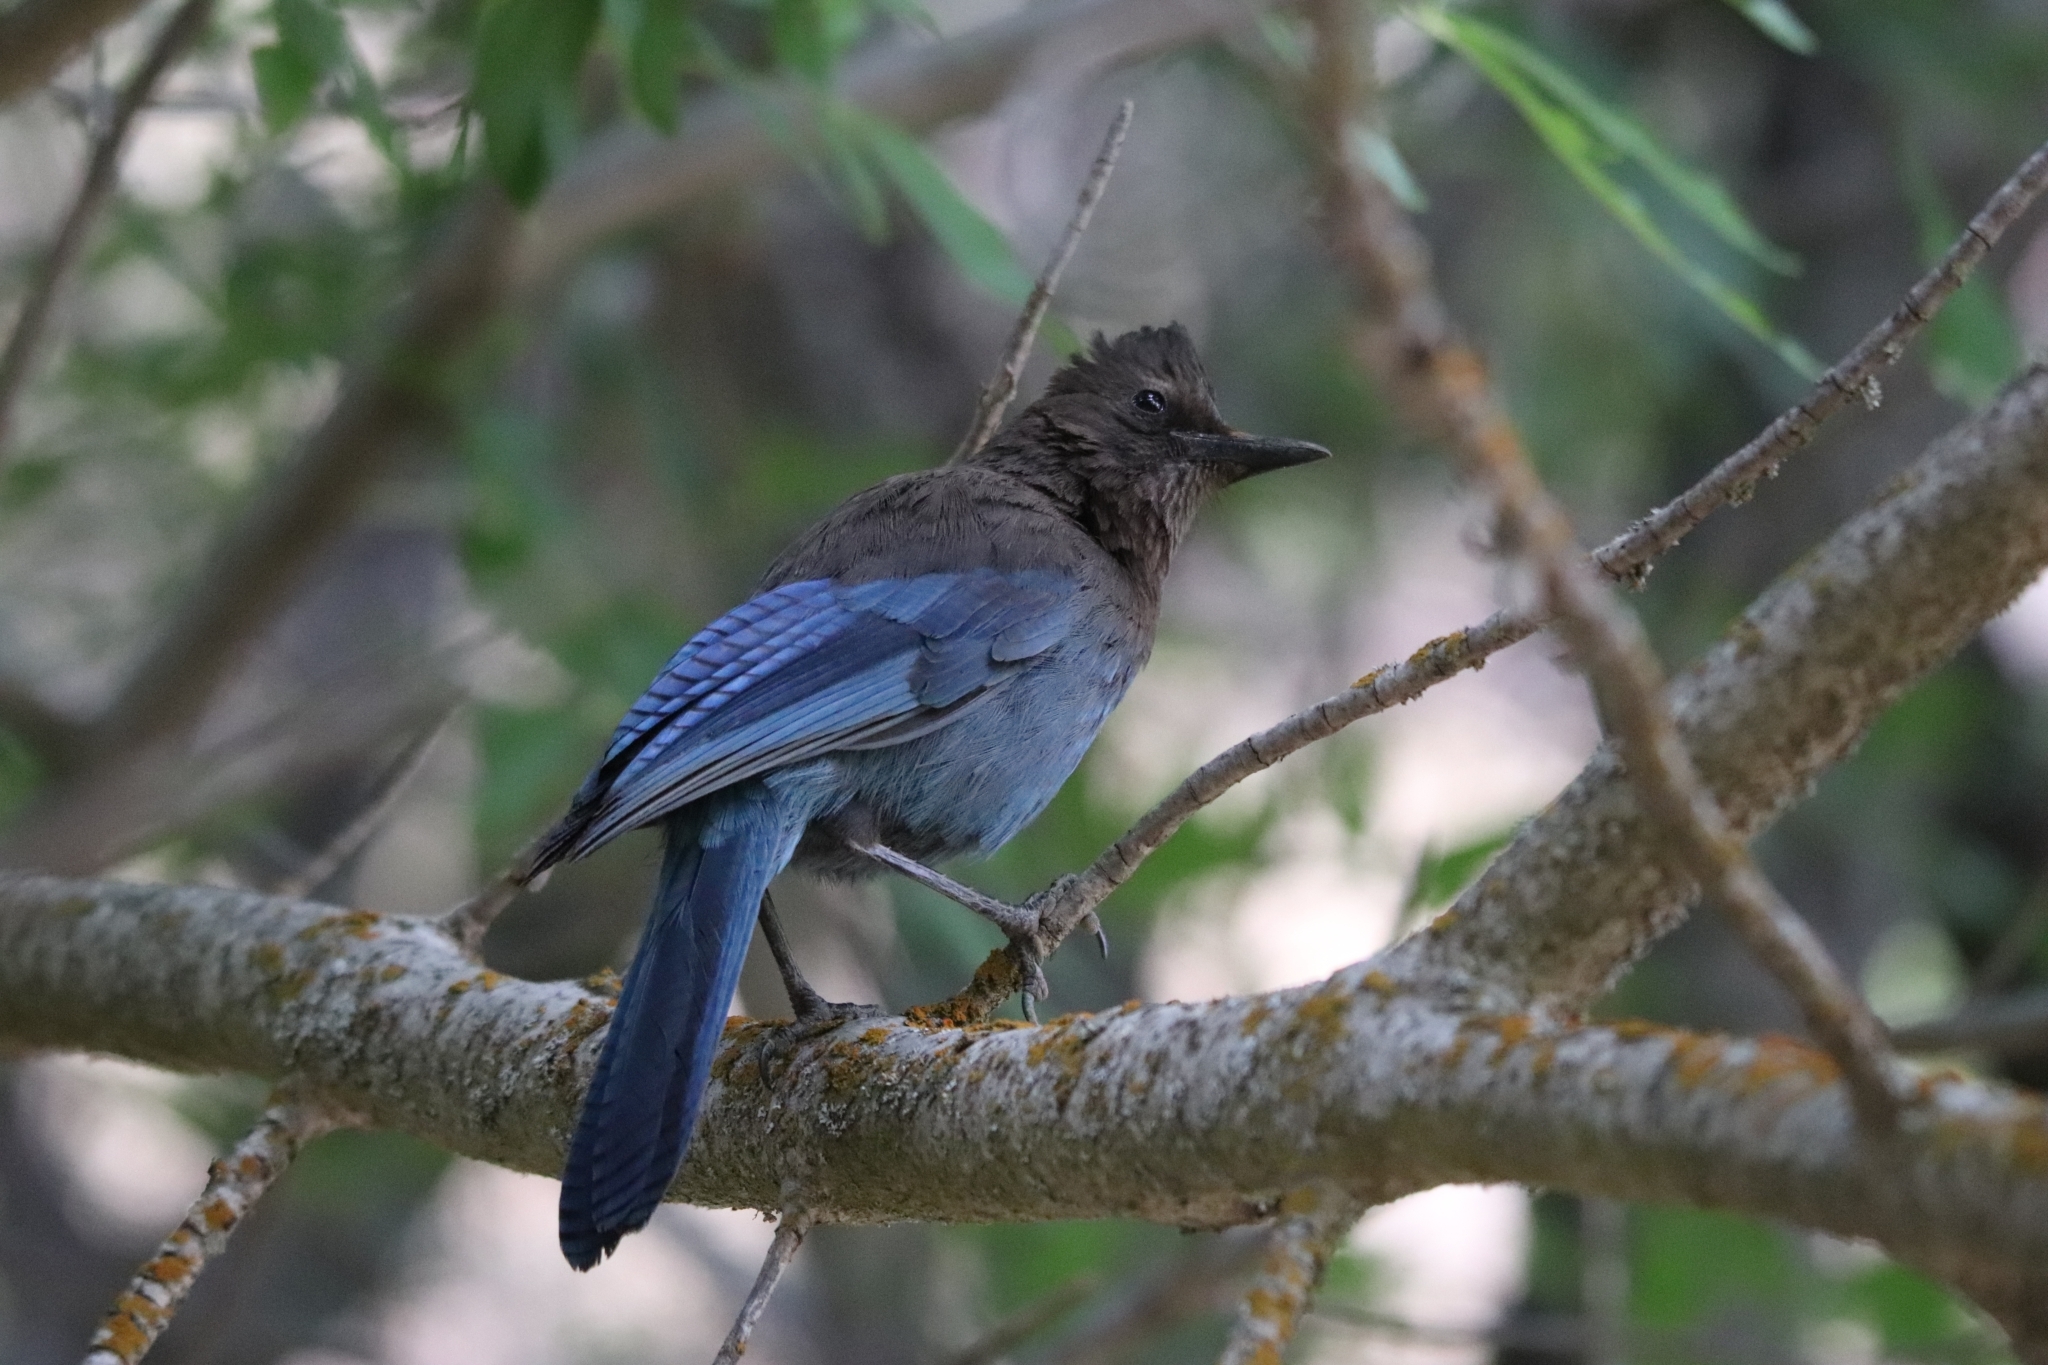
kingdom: Animalia
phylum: Chordata
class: Aves
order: Passeriformes
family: Corvidae
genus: Cyanocitta
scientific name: Cyanocitta stelleri
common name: Steller's jay
